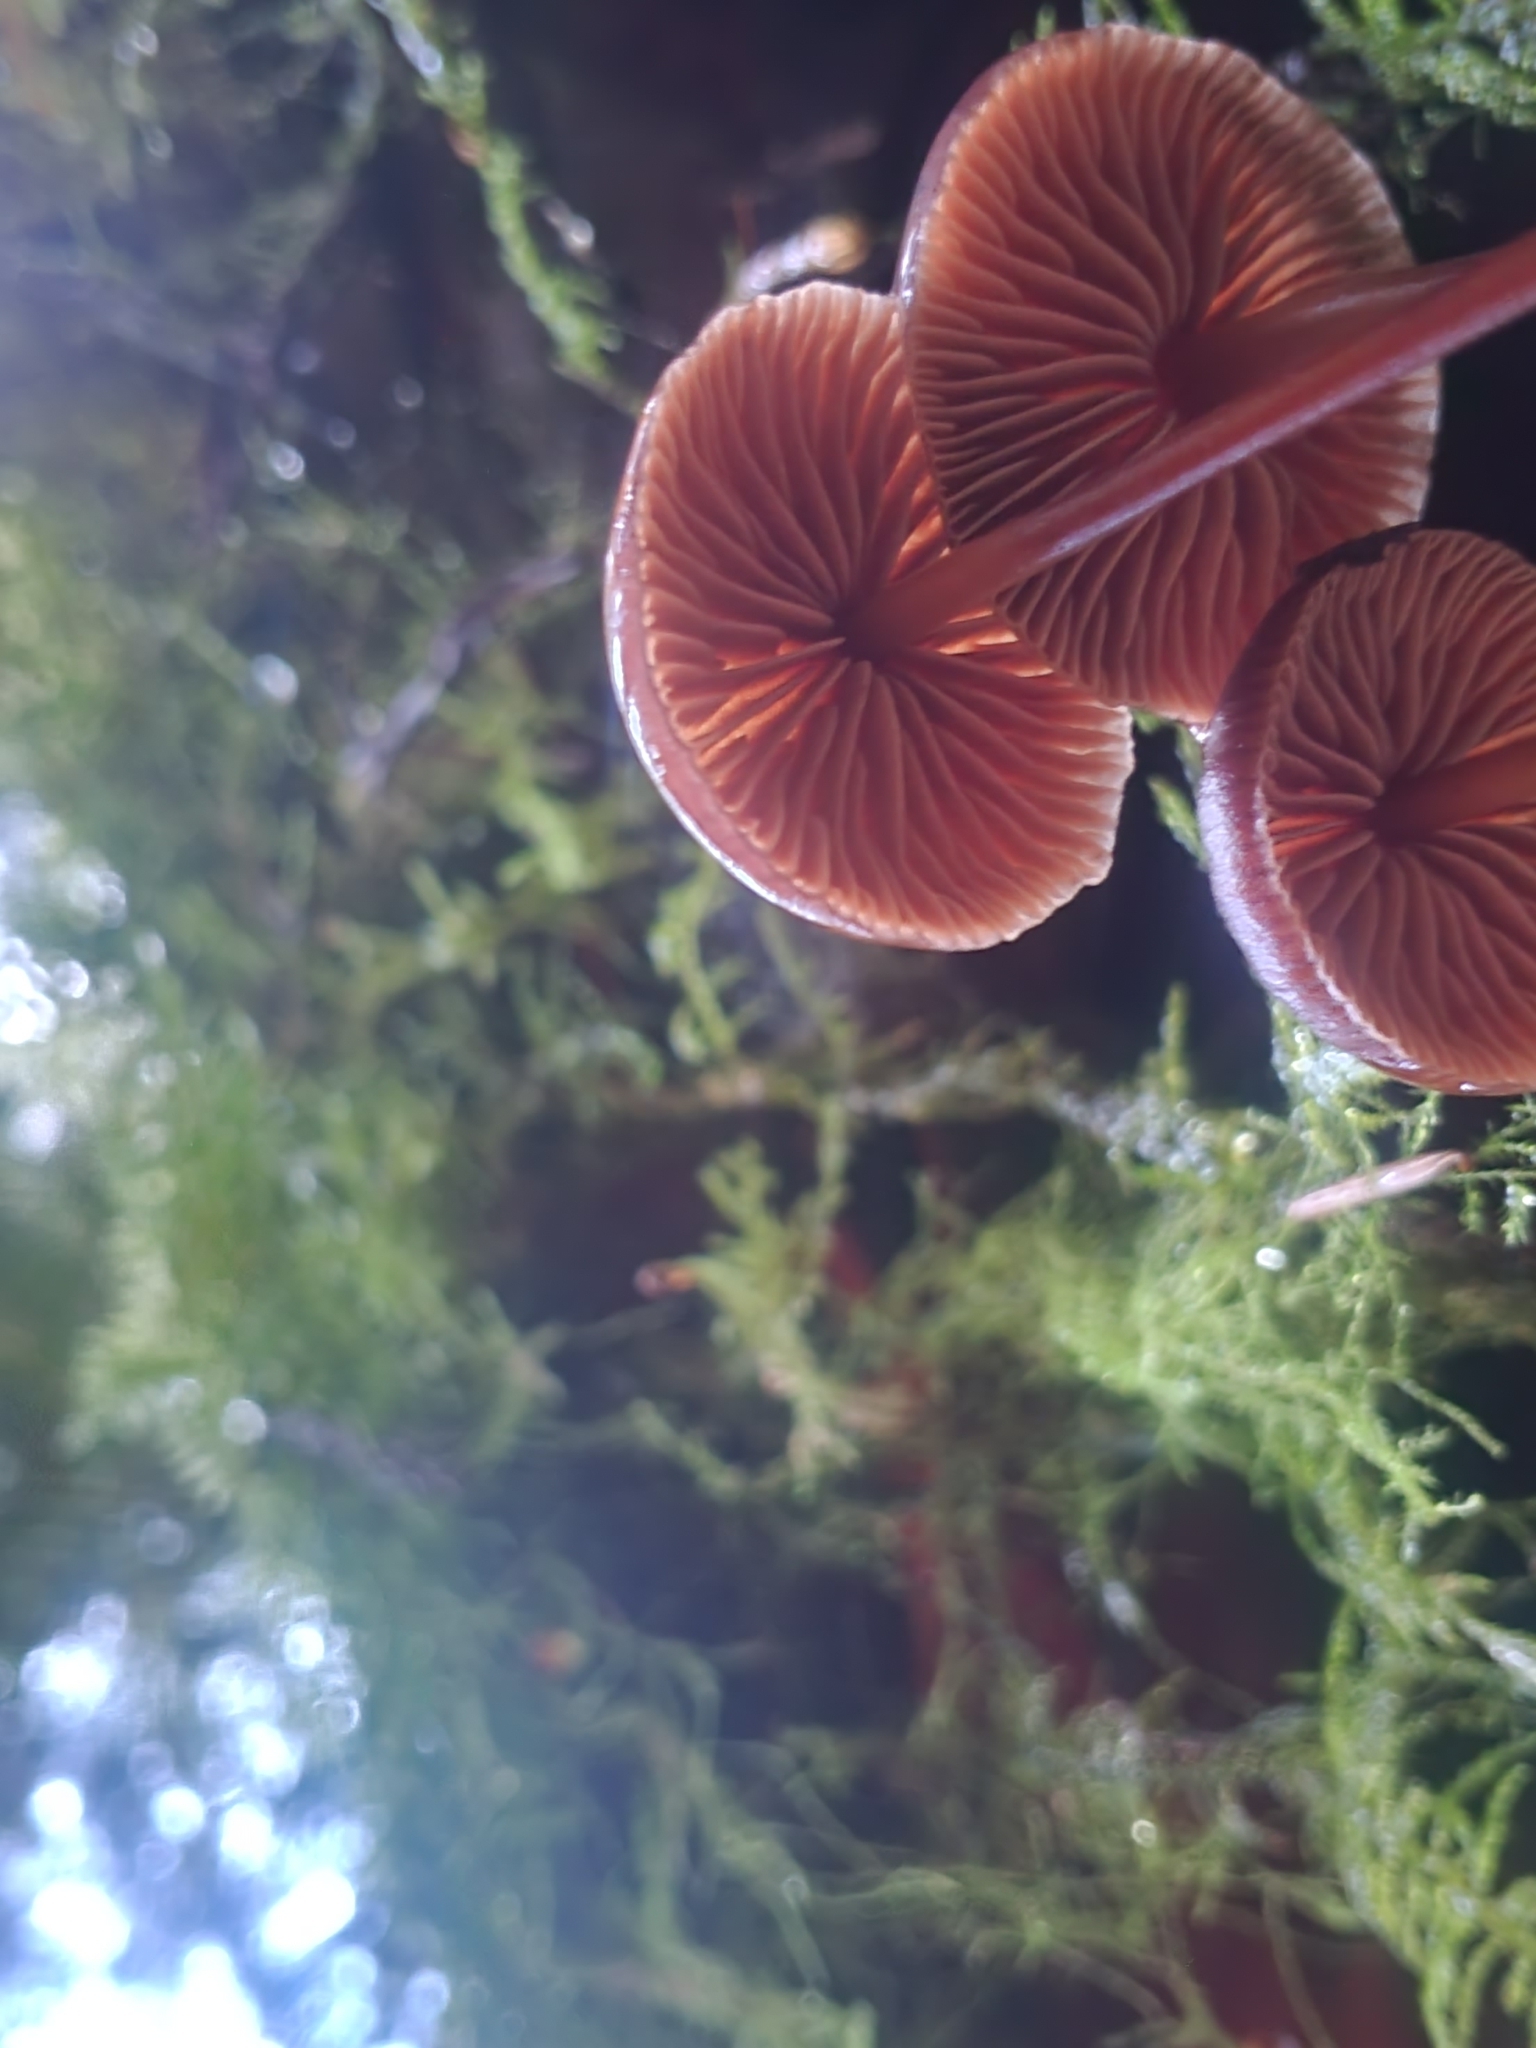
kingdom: Fungi
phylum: Basidiomycota
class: Agaricomycetes
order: Agaricales
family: Marasmiaceae
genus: Marasmius
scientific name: Marasmius plicatulus
